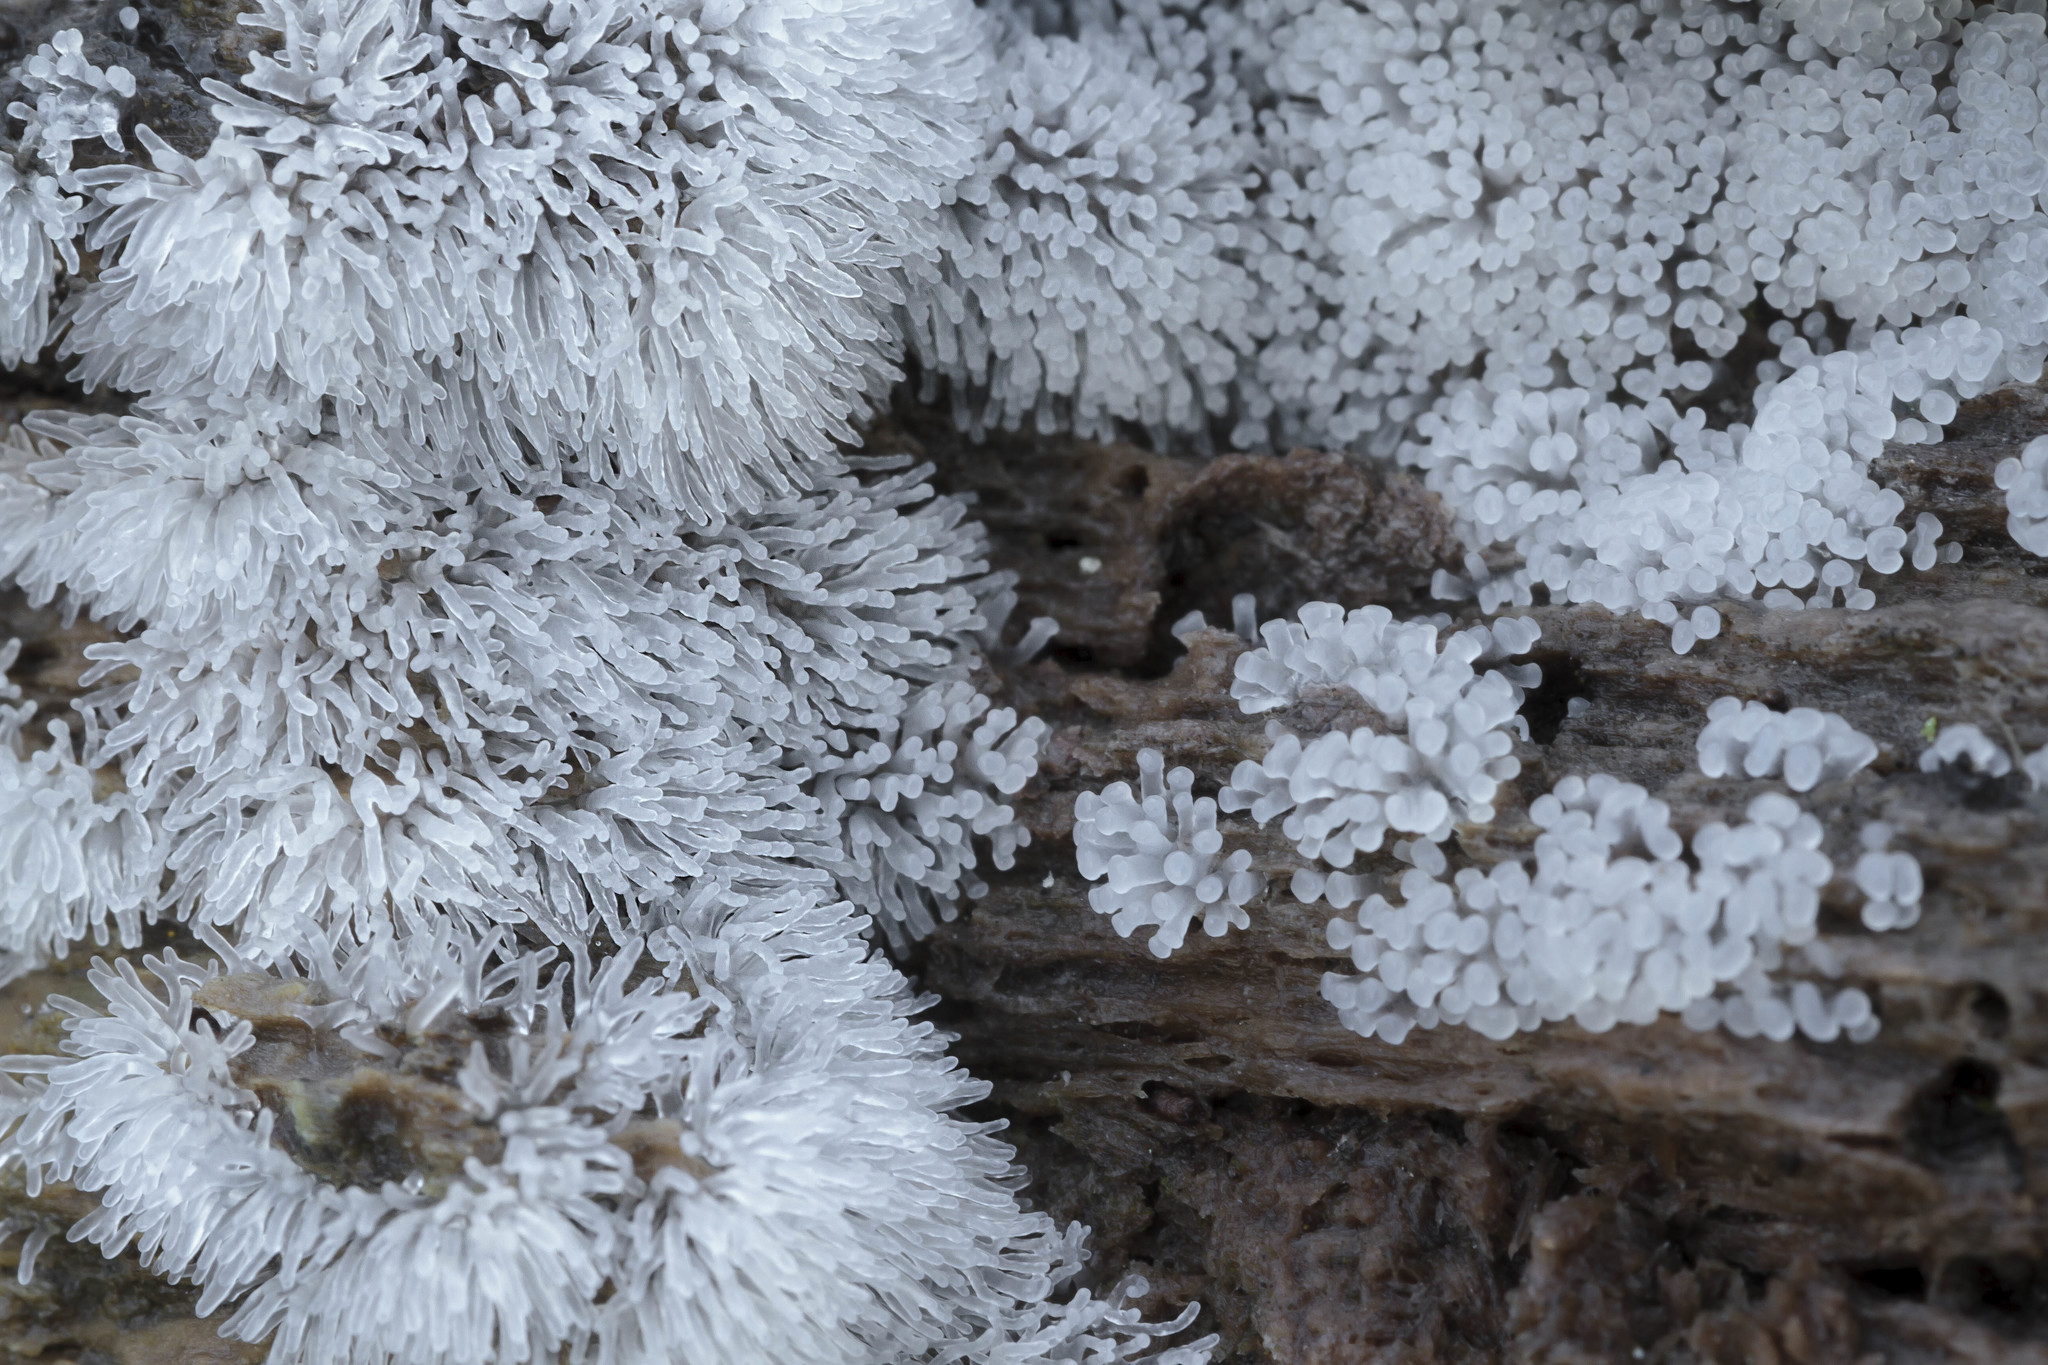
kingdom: Protozoa
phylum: Mycetozoa
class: Protosteliomycetes
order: Ceratiomyxales
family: Ceratiomyxaceae
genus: Ceratiomyxa
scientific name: Ceratiomyxa fruticulosa
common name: Honeycomb coral slime mold
